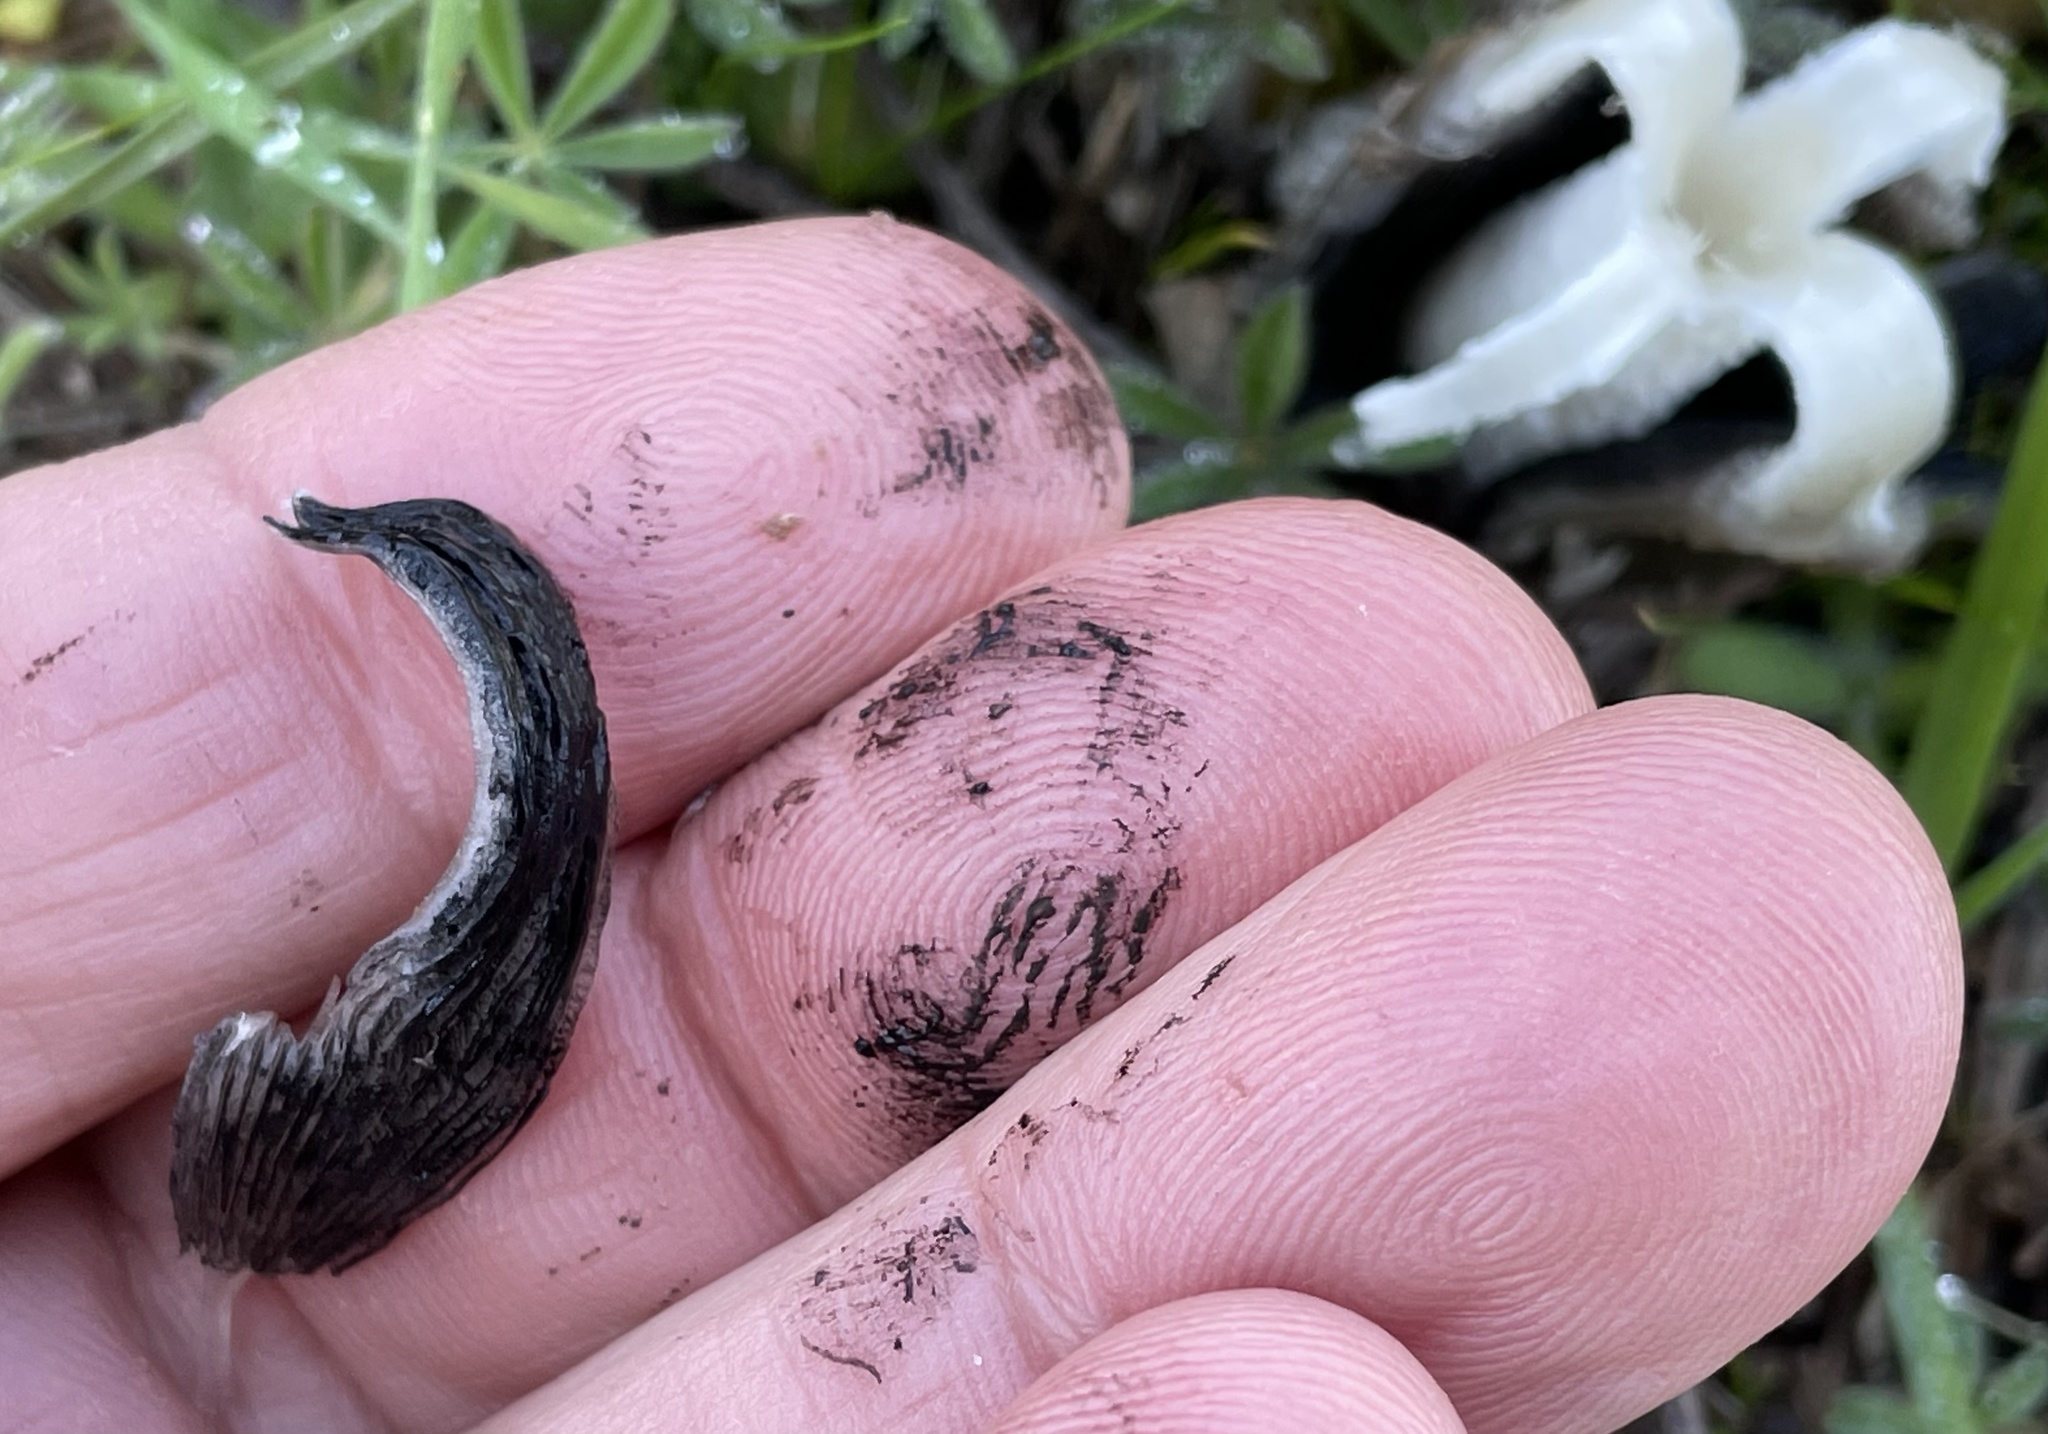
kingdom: Fungi
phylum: Basidiomycota
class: Agaricomycetes
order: Agaricales
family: Psathyrellaceae
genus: Coprinopsis
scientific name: Coprinopsis lagopus
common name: Hare'sfoot inkcap
